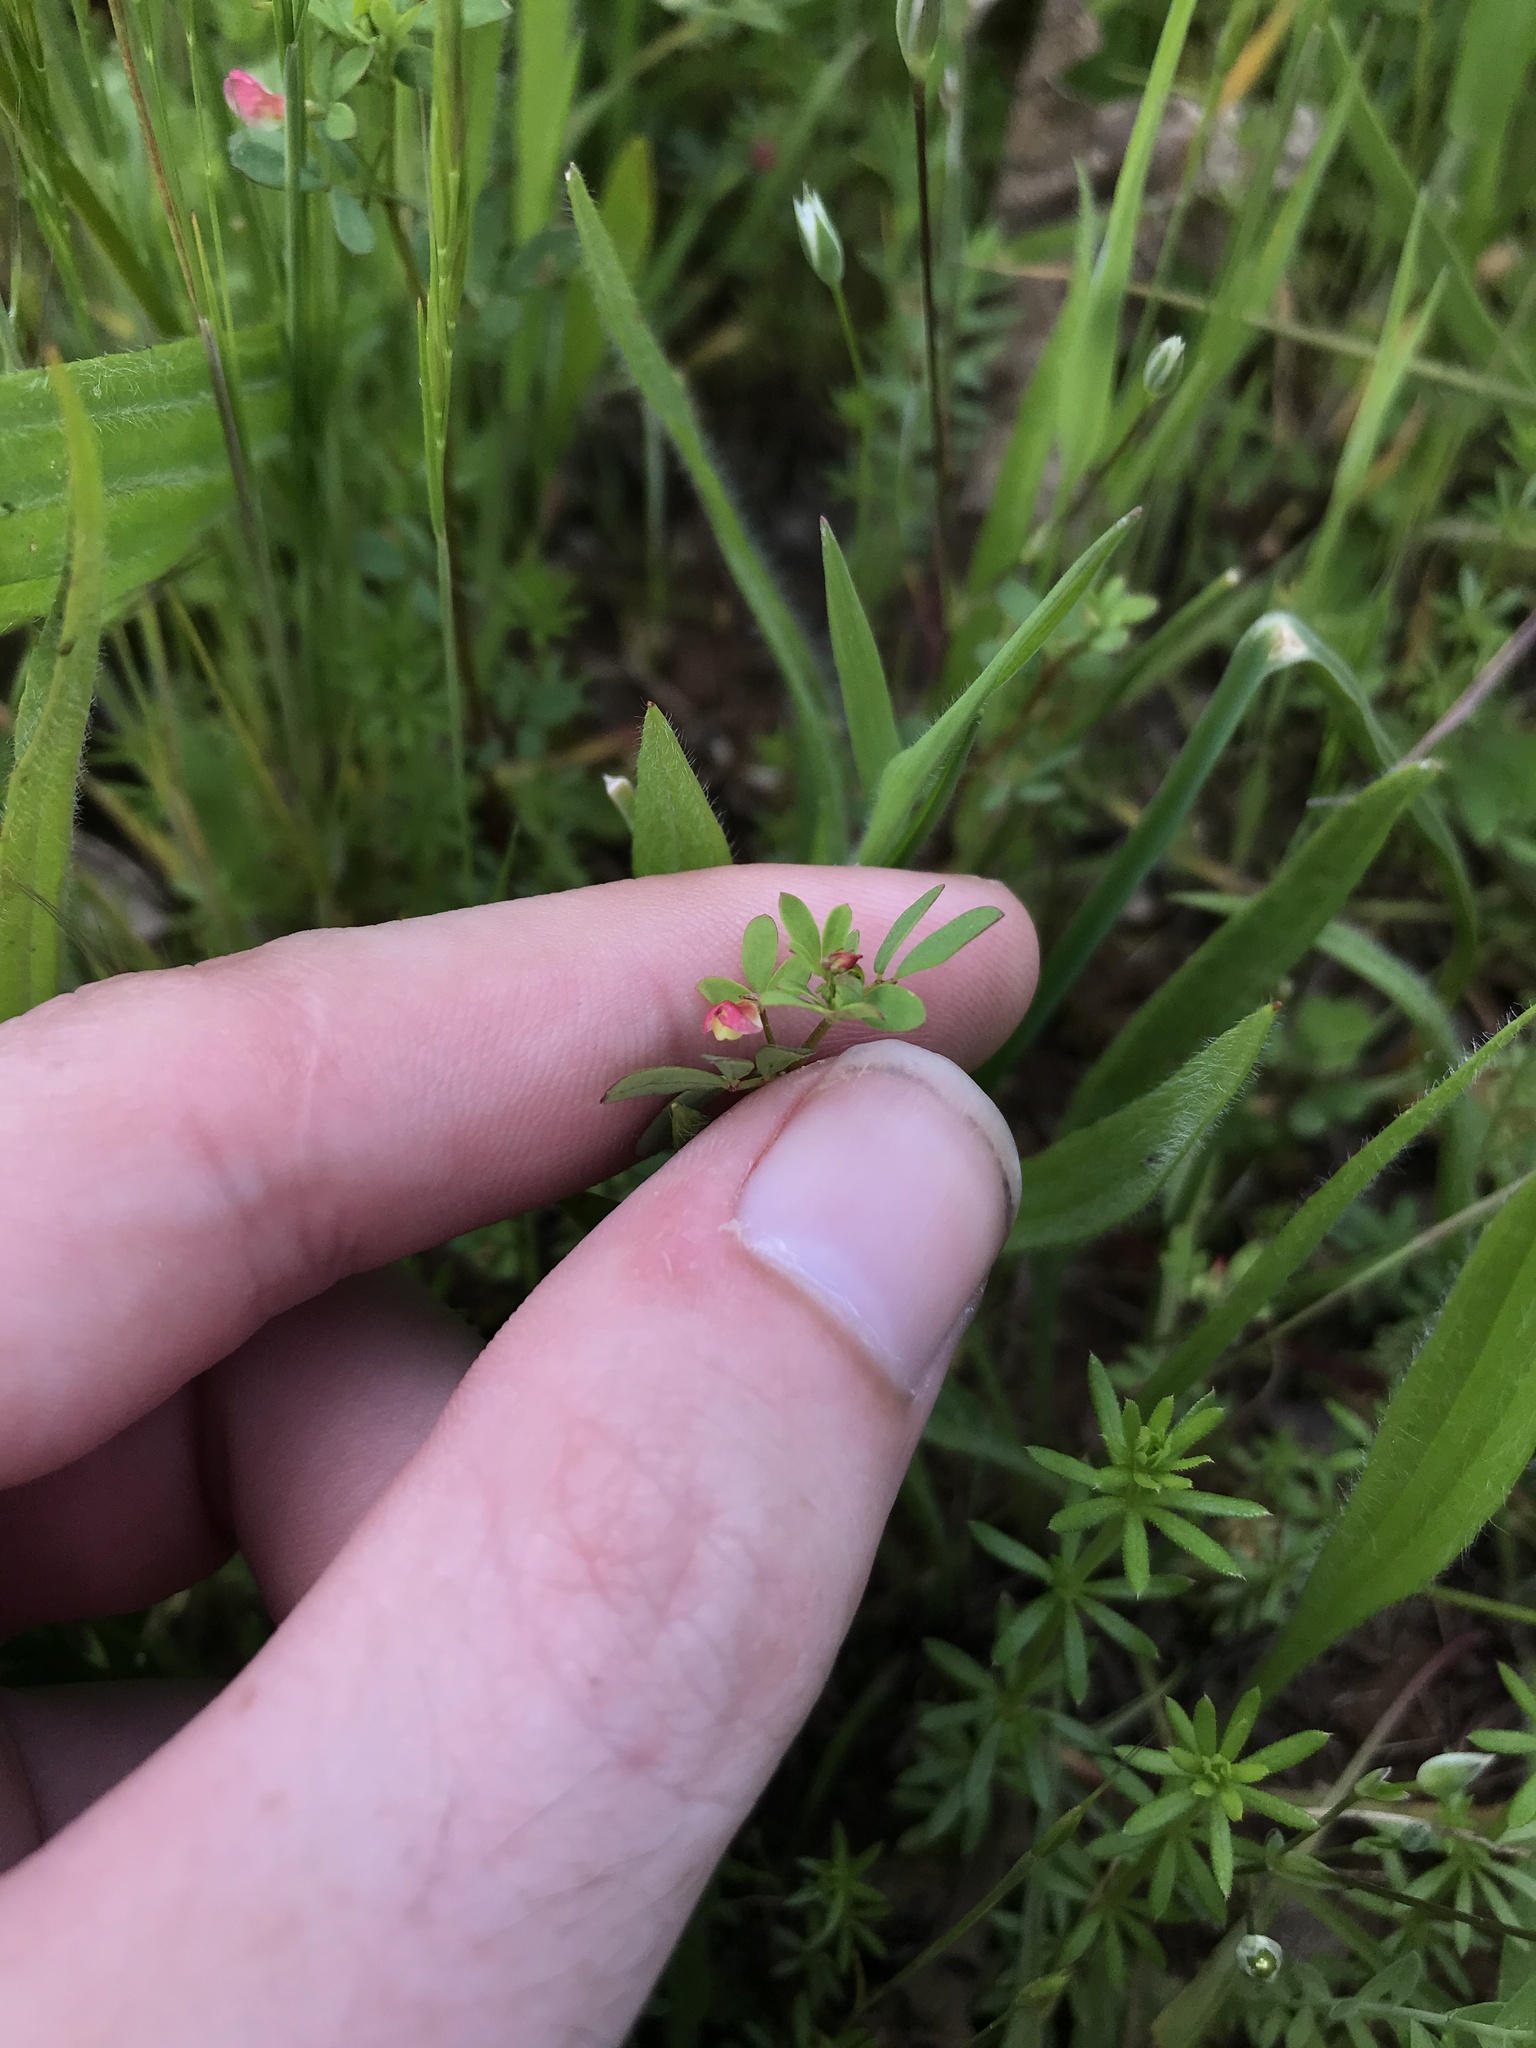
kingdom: Plantae
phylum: Tracheophyta
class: Magnoliopsida
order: Fabales
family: Fabaceae
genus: Acmispon
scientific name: Acmispon parviflorus
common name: Desert deer-vetch
